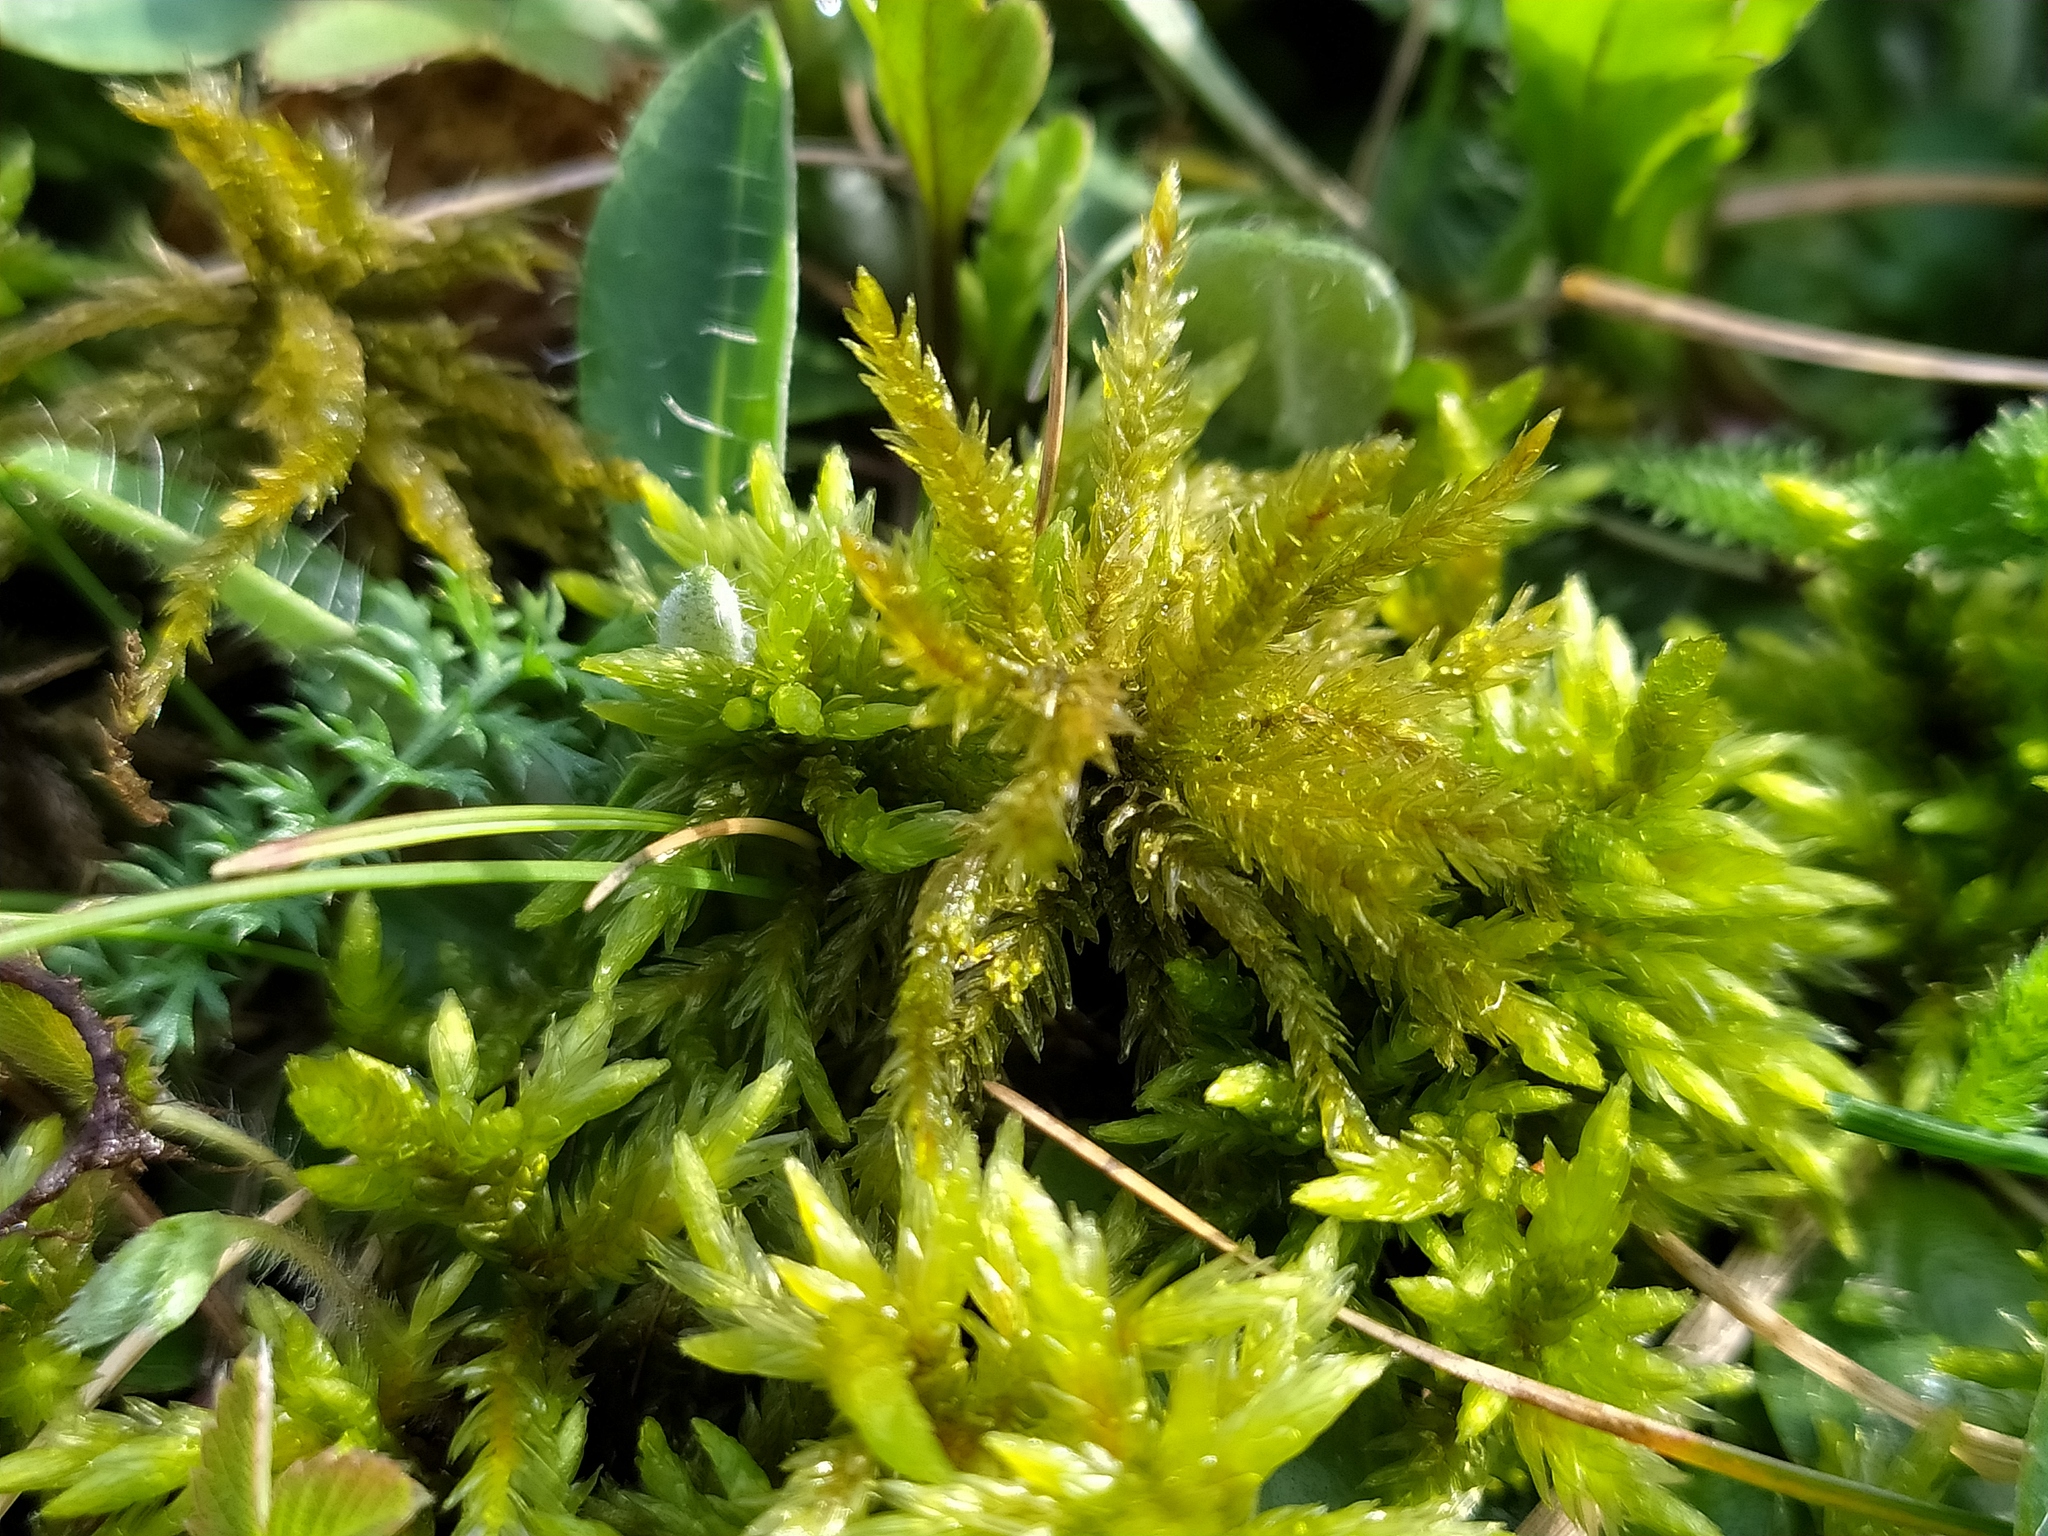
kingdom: Plantae
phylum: Bryophyta
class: Bryopsida
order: Hypnales
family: Climaciaceae
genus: Climacium
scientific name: Climacium dendroides
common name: Northern tree moss
